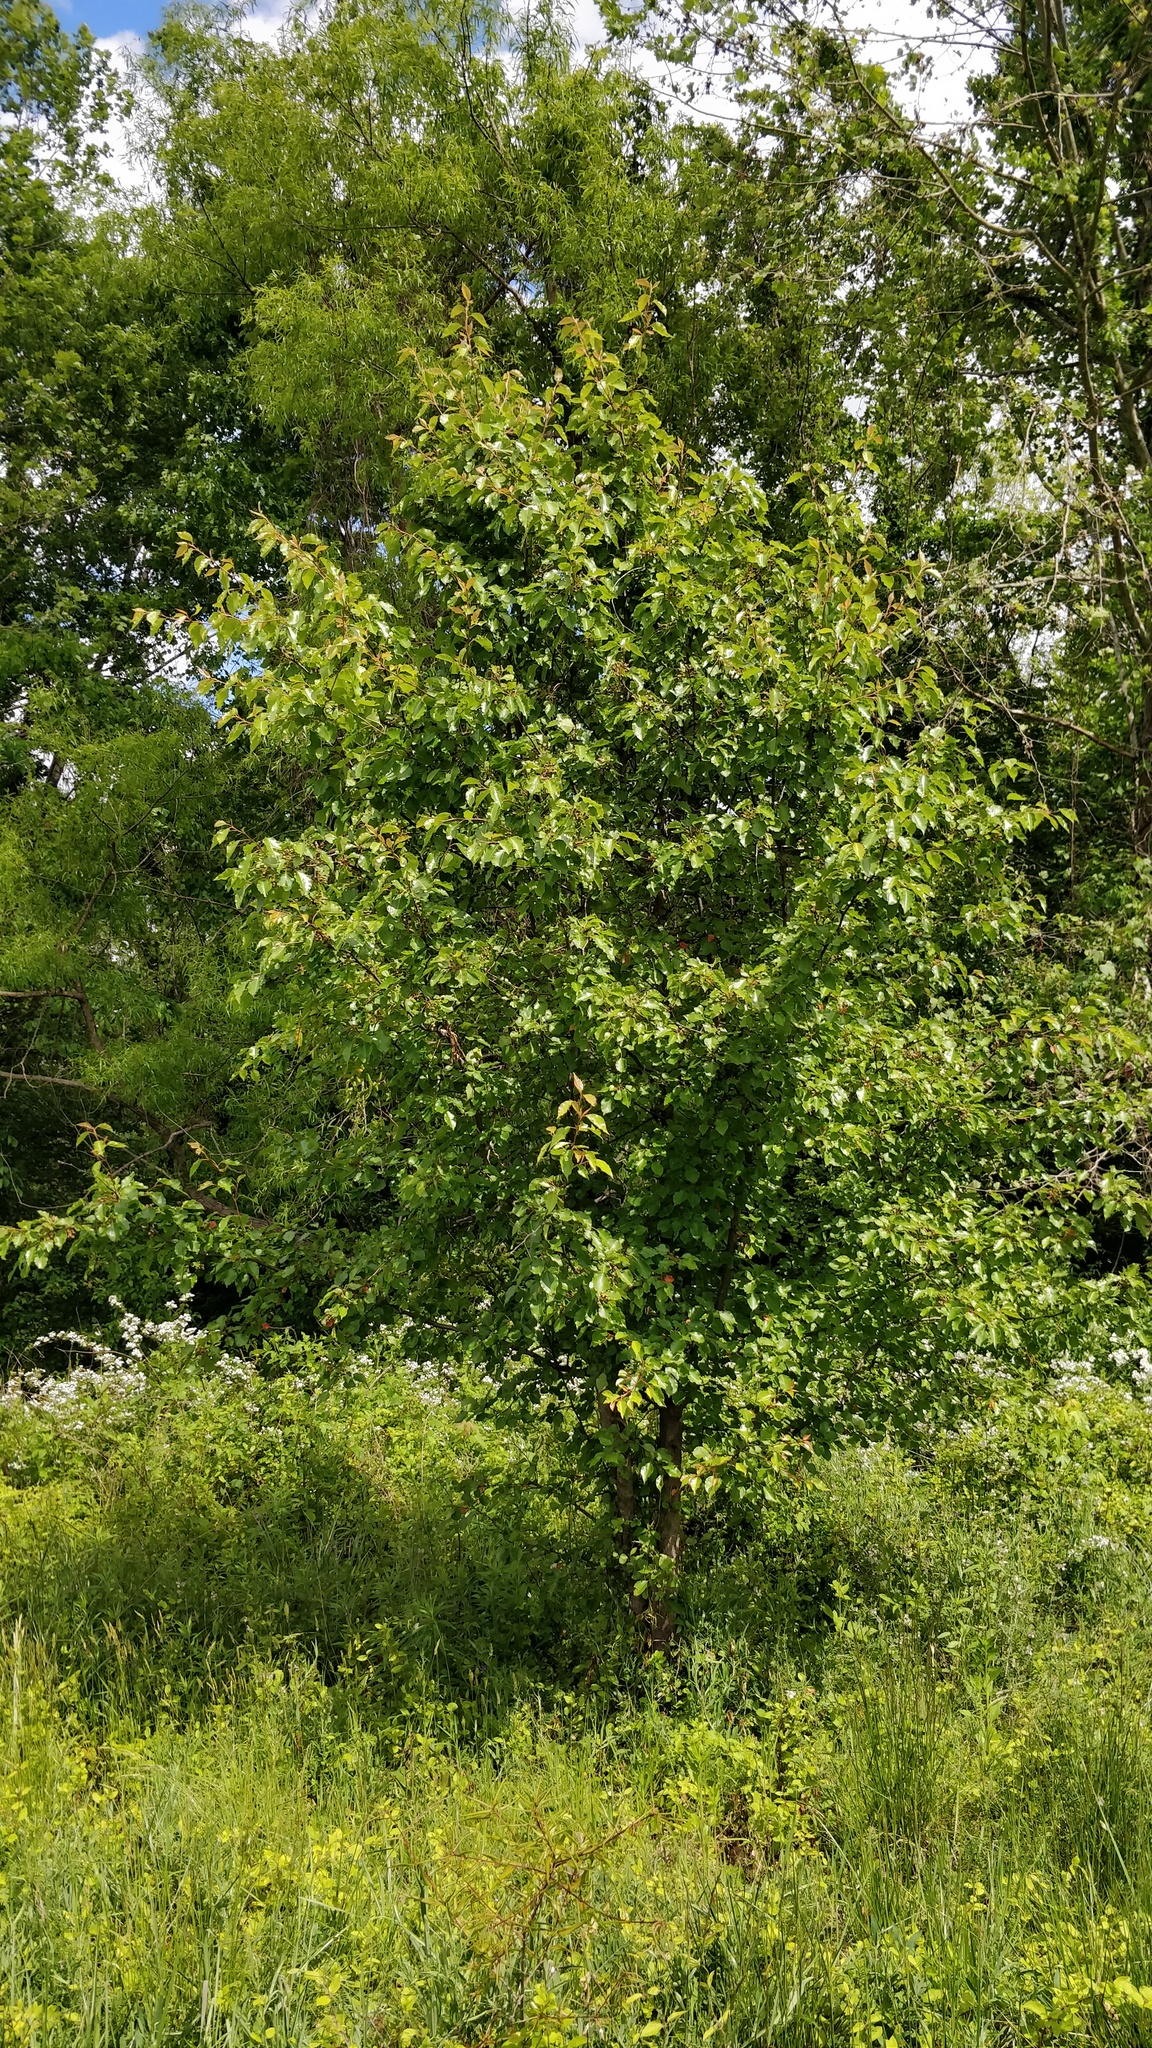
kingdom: Plantae
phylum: Tracheophyta
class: Magnoliopsida
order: Rosales
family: Rosaceae
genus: Pyrus
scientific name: Pyrus calleryana
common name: Callery pear
